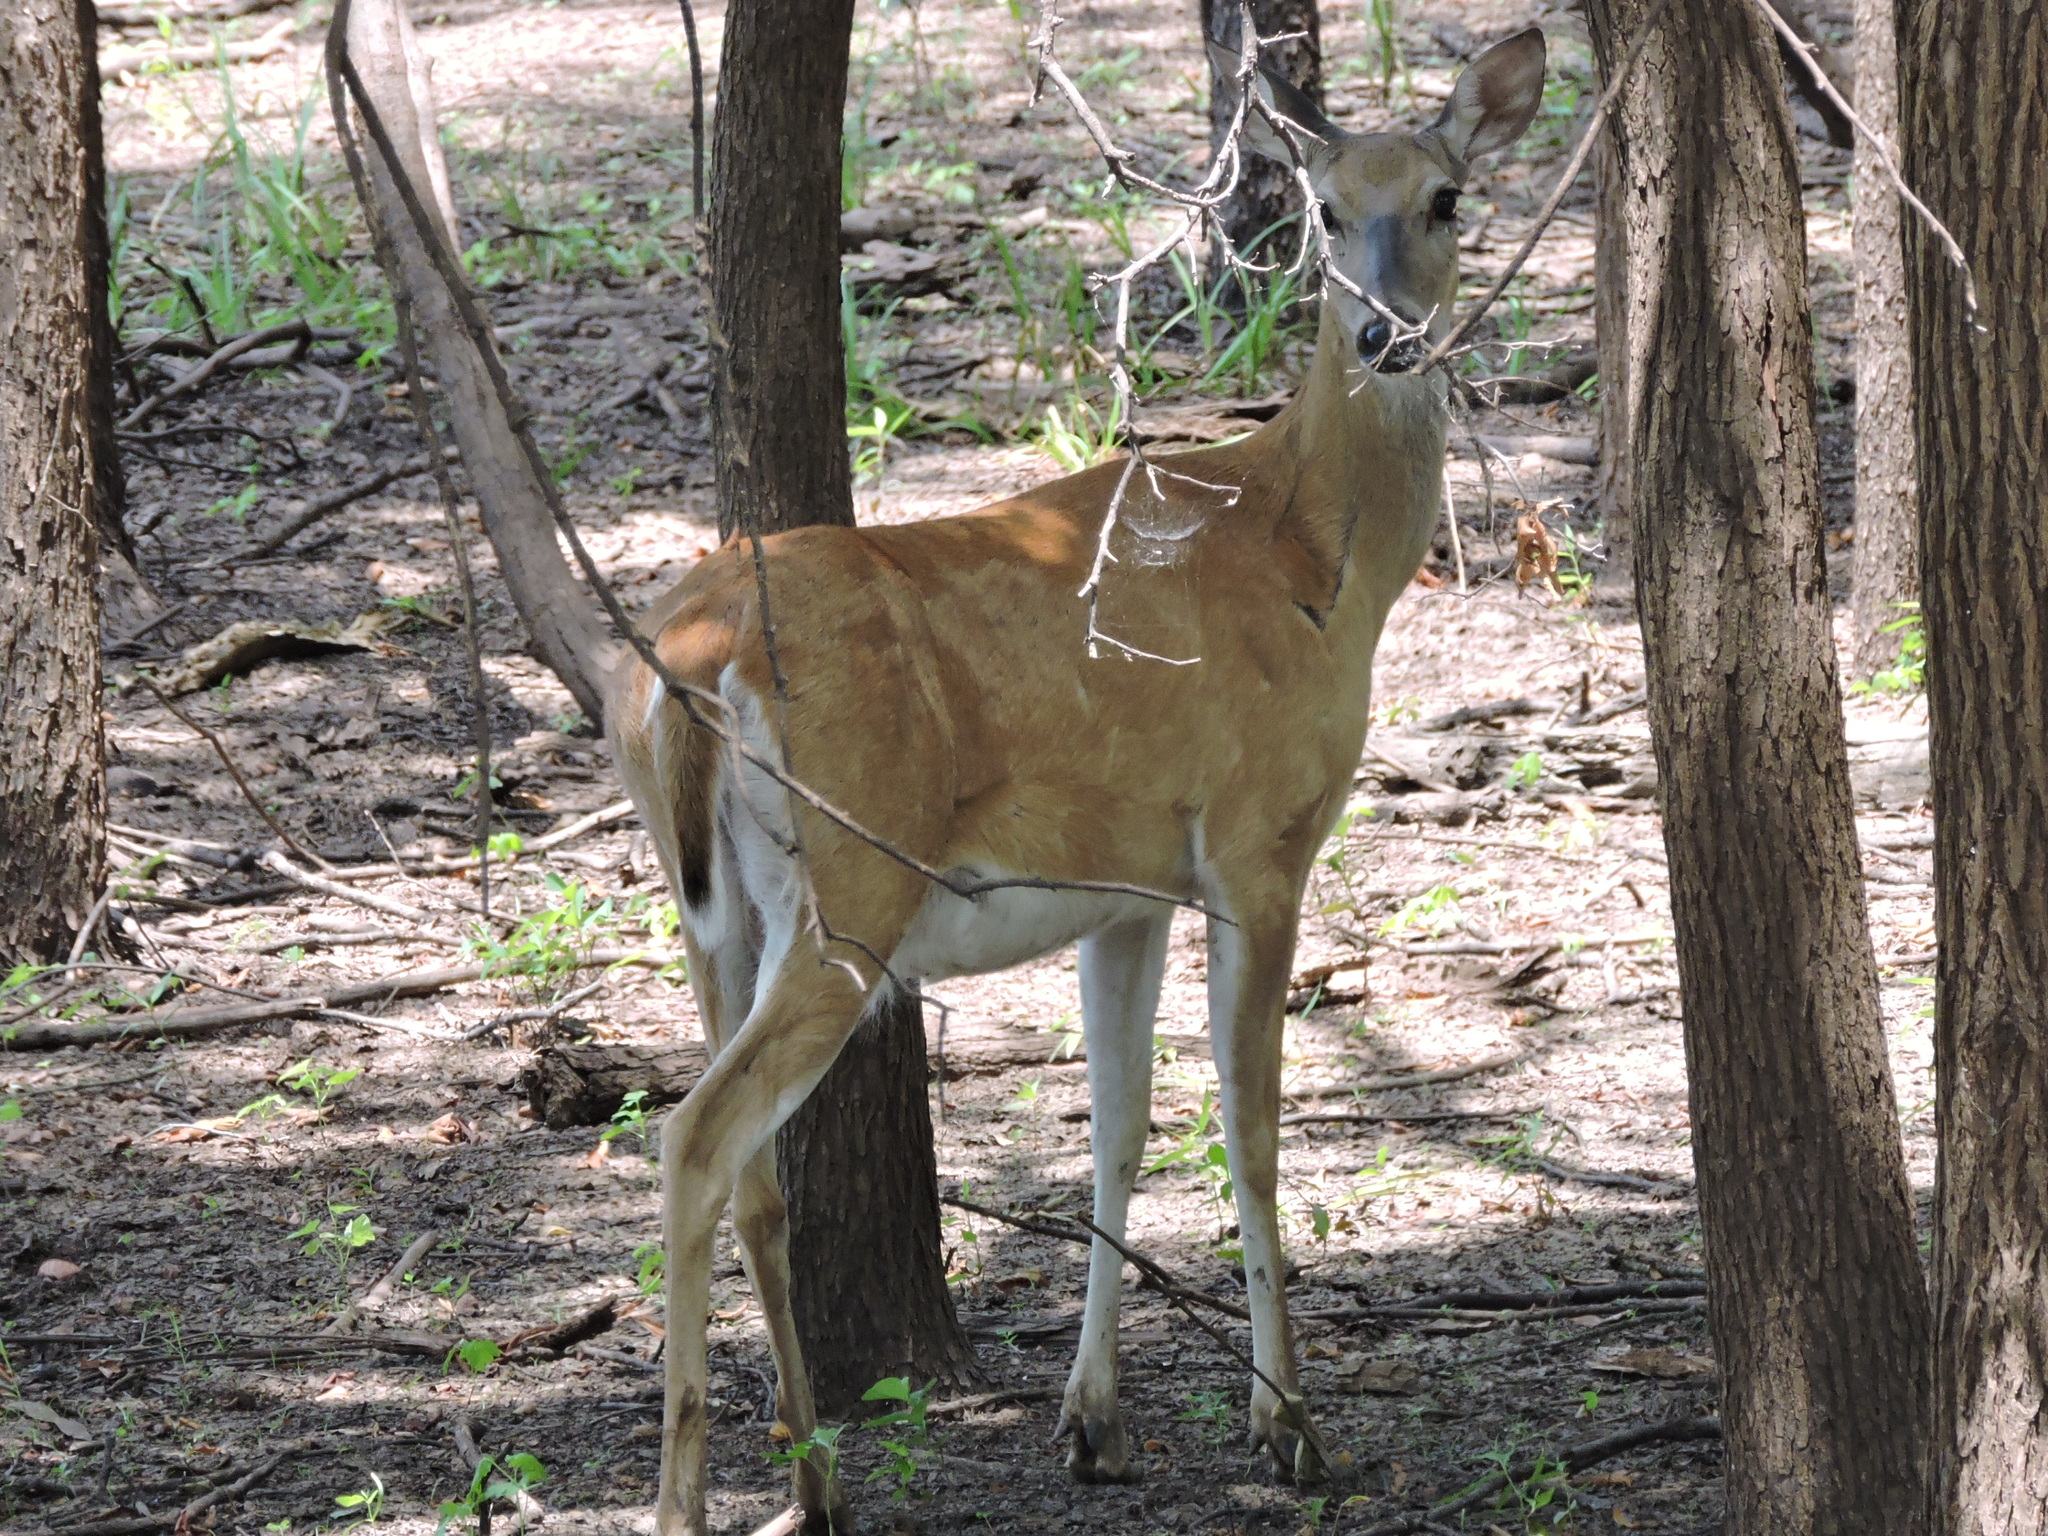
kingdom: Animalia
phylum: Chordata
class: Mammalia
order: Artiodactyla
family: Cervidae
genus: Odocoileus
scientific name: Odocoileus virginianus
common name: White-tailed deer
